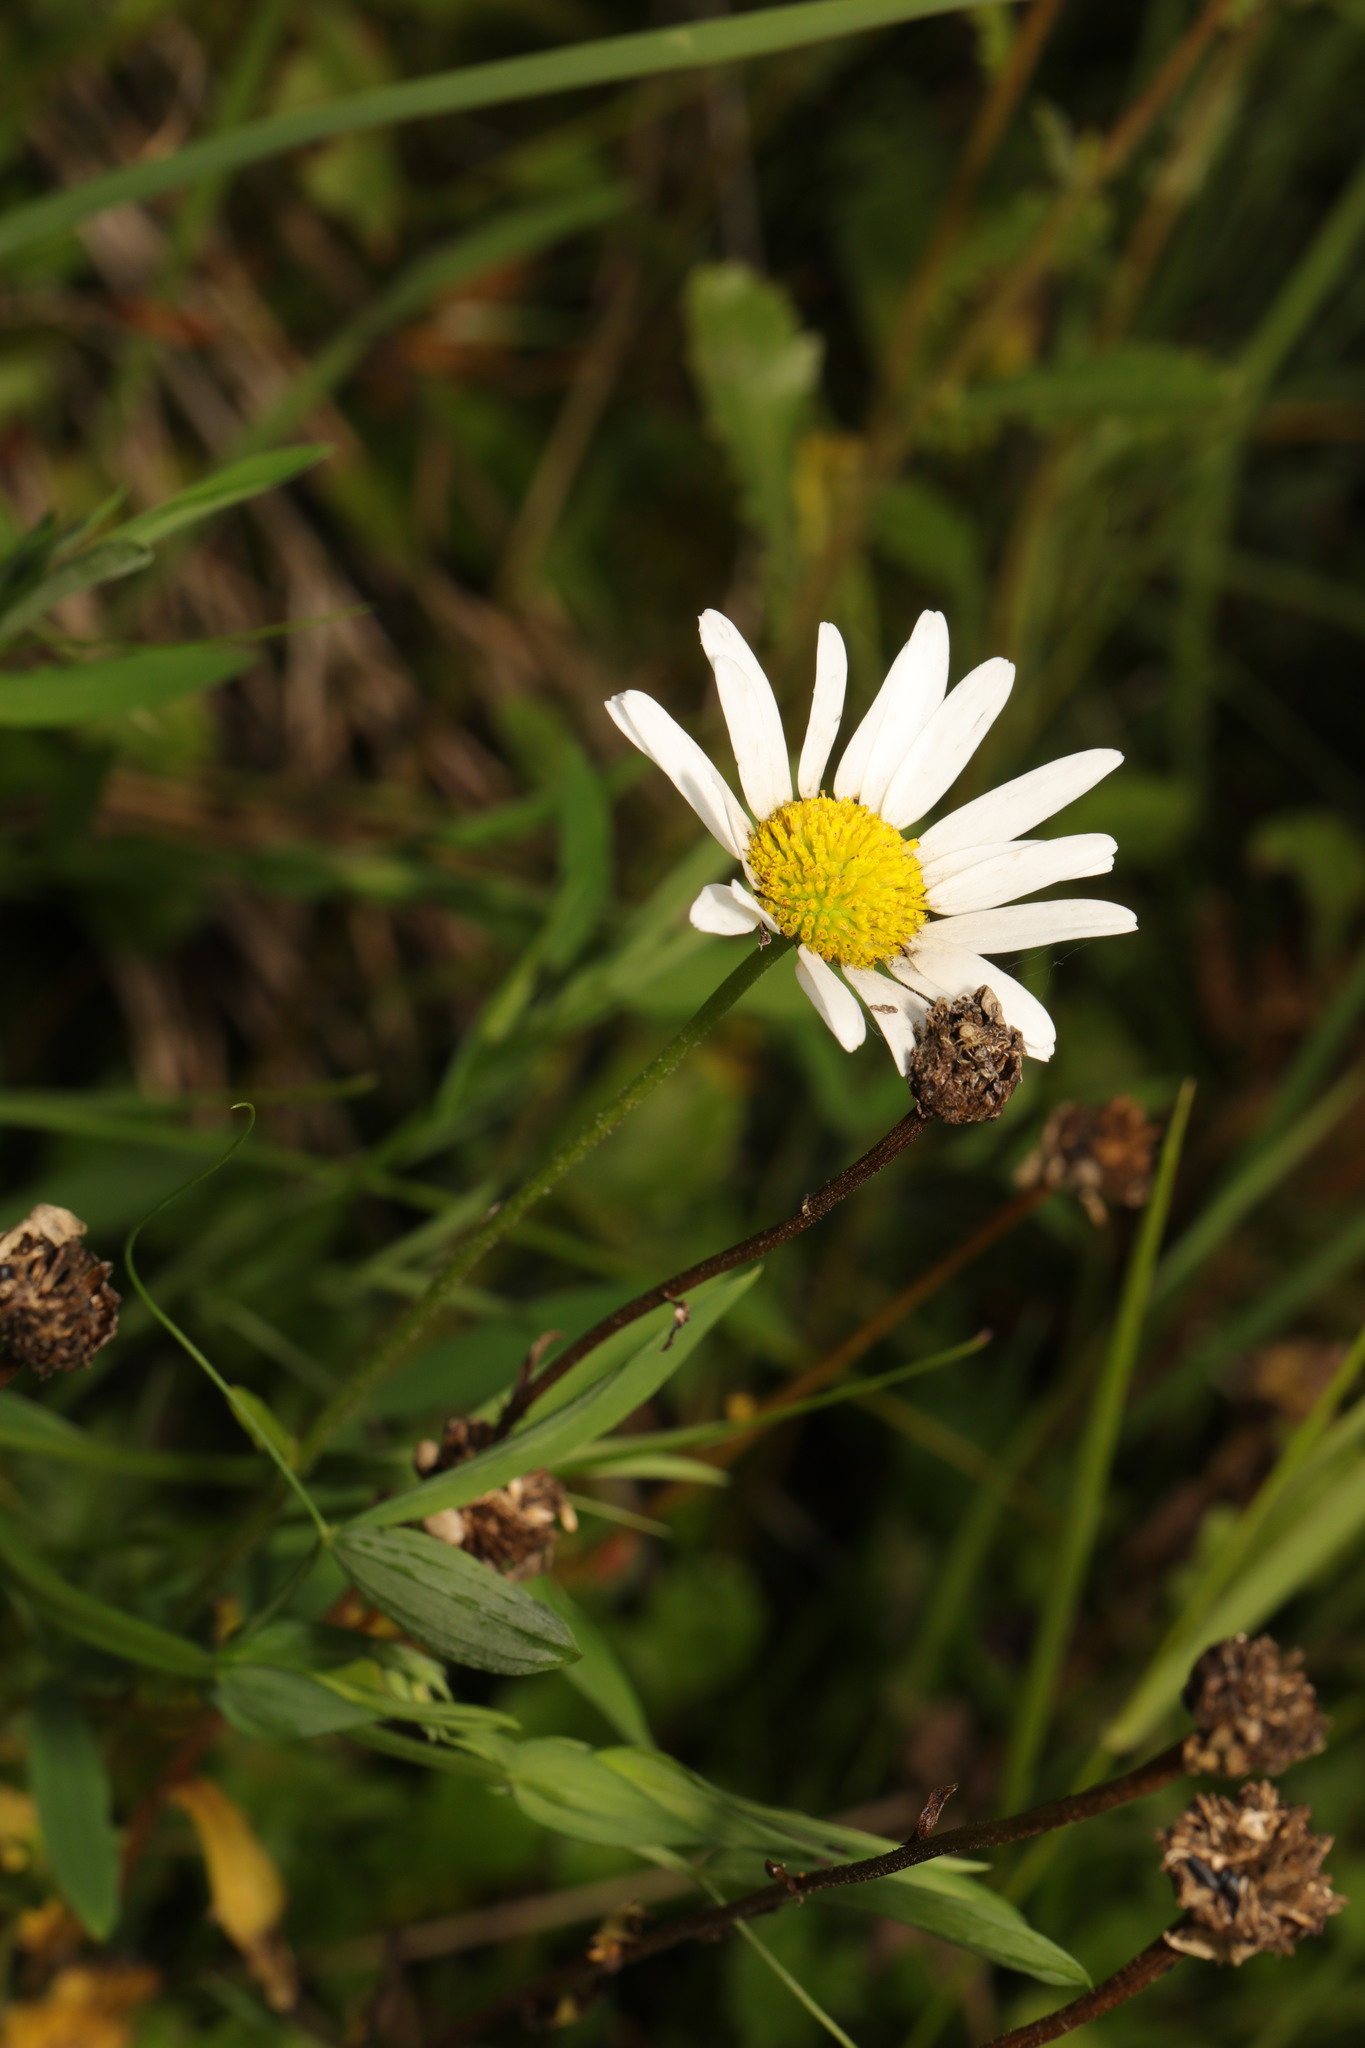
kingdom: Plantae
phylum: Tracheophyta
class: Magnoliopsida
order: Asterales
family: Asteraceae
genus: Leucanthemum
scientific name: Leucanthemum vulgare
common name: Oxeye daisy
